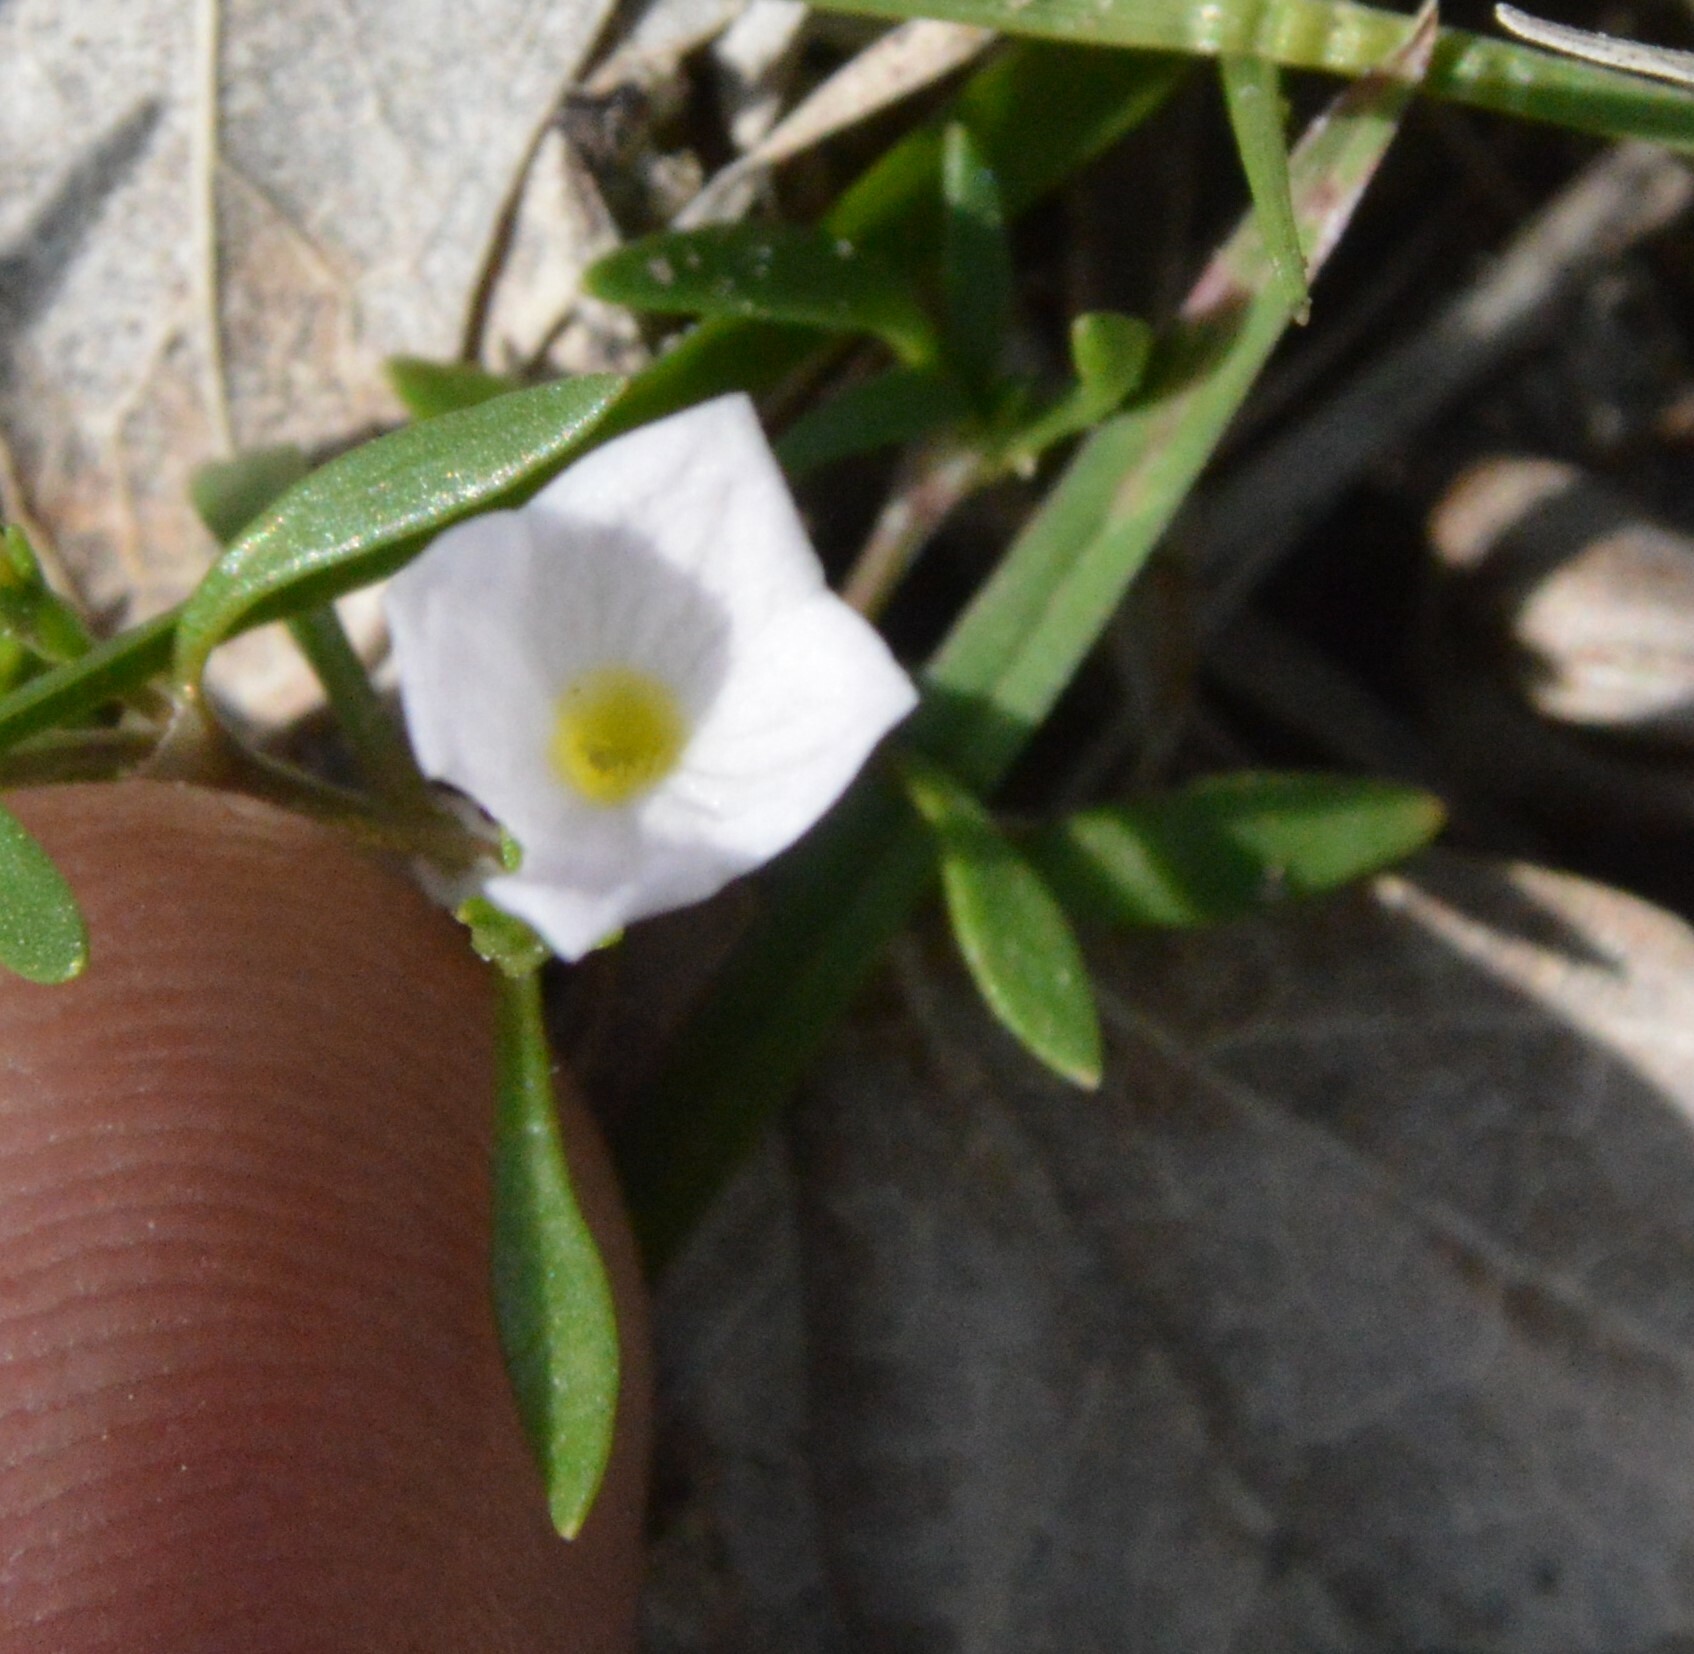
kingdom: Plantae
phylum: Tracheophyta
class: Magnoliopsida
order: Gentianales
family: Rubiaceae
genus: Houstonia
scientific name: Houstonia rosea
